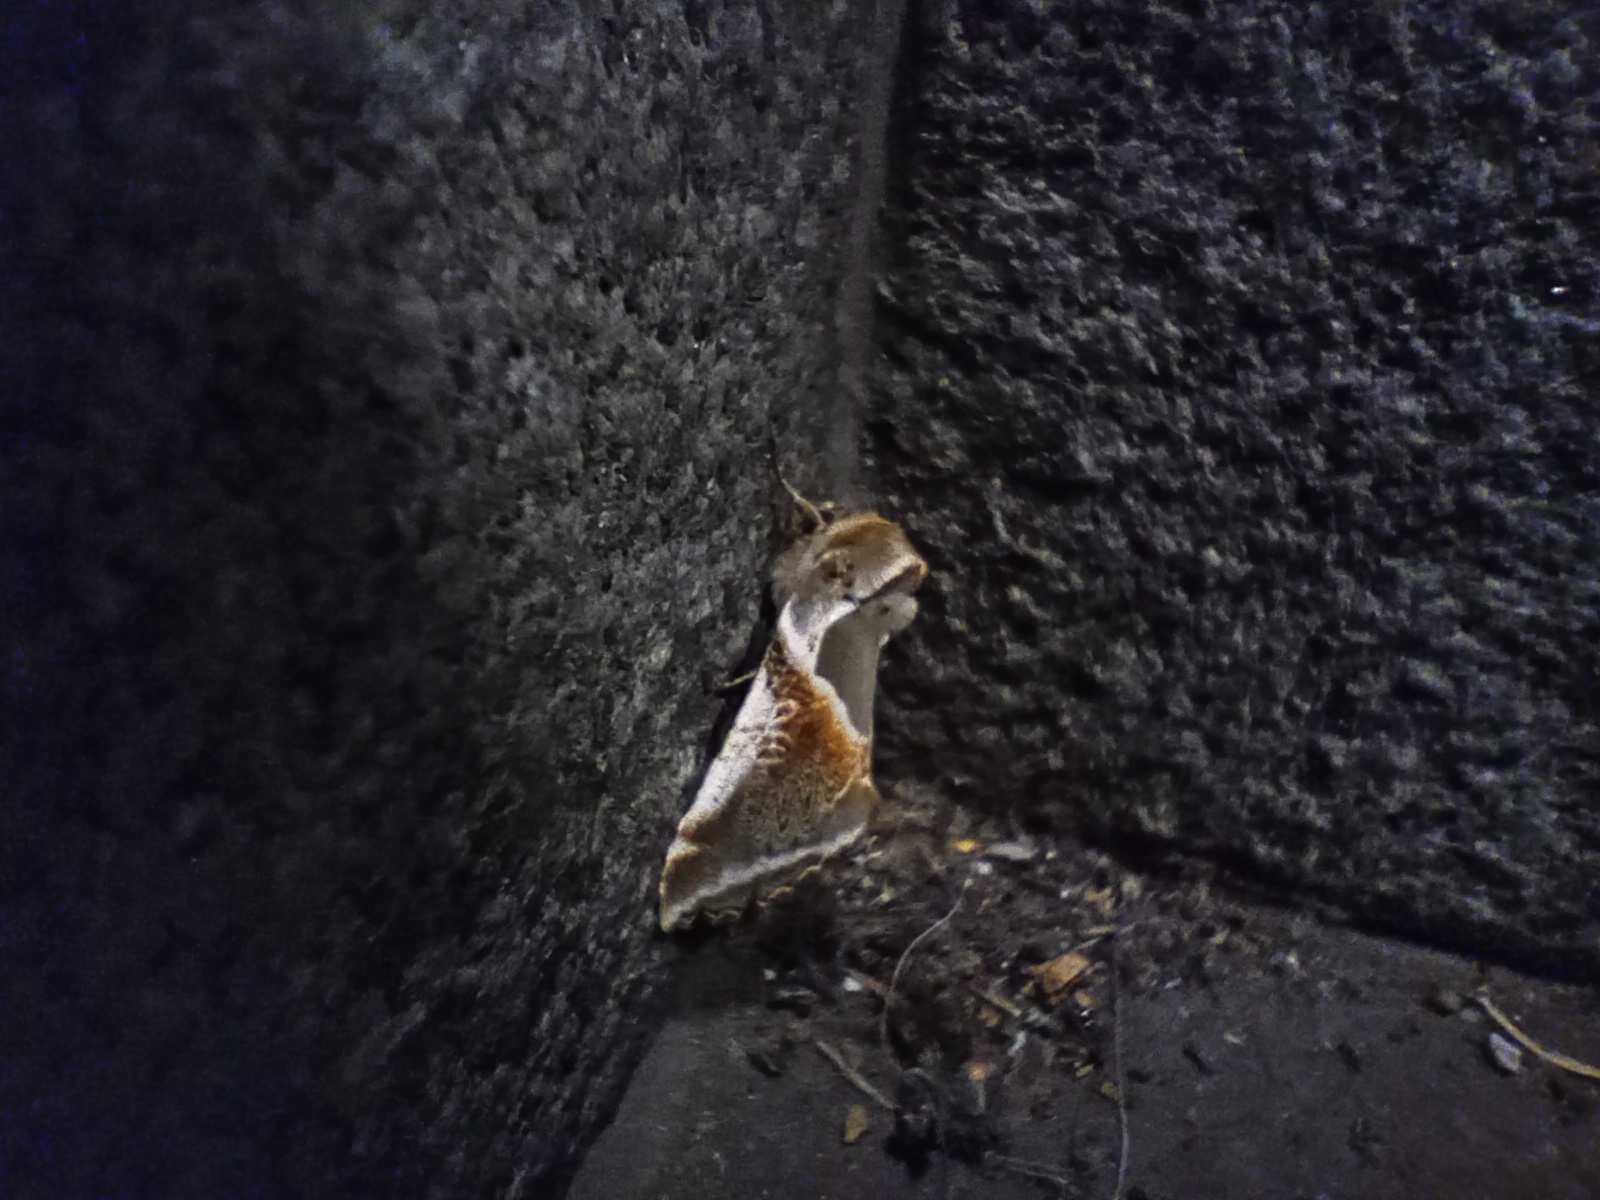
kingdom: Animalia
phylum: Arthropoda
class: Insecta
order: Lepidoptera
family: Drepanidae
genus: Habrosyne
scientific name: Habrosyne pyritoides
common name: Buff arches
